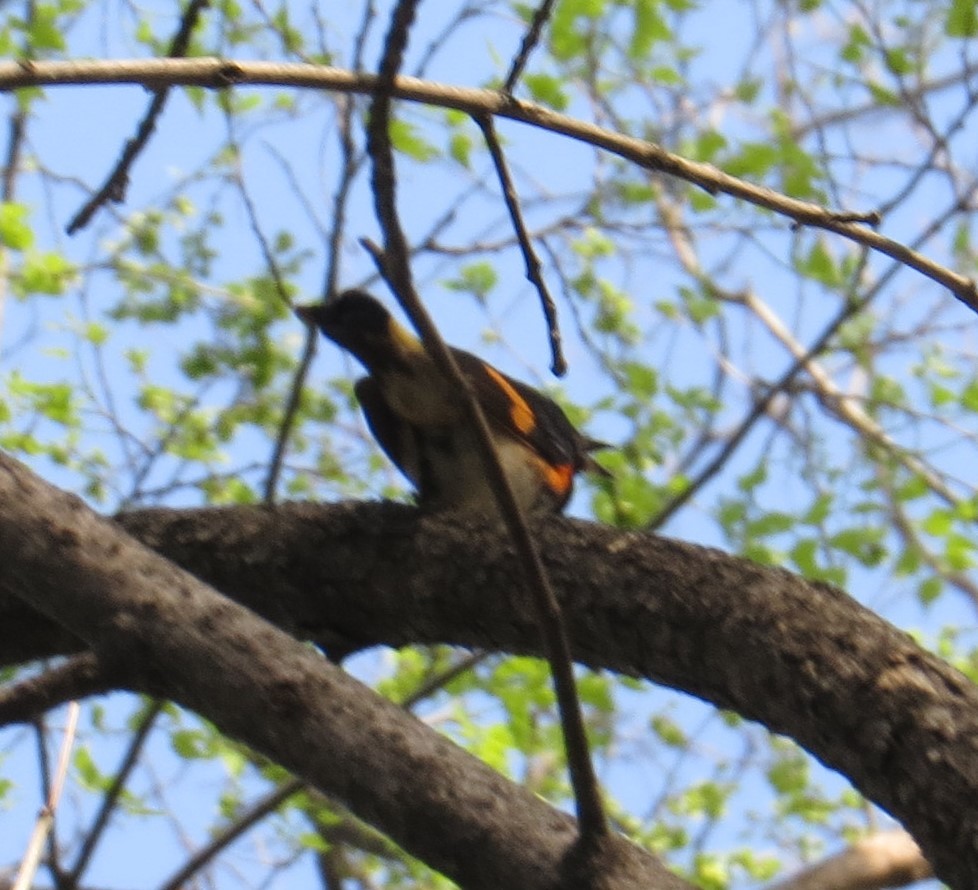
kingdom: Animalia
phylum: Chordata
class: Aves
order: Passeriformes
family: Parulidae
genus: Setophaga
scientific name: Setophaga ruticilla
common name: American redstart
